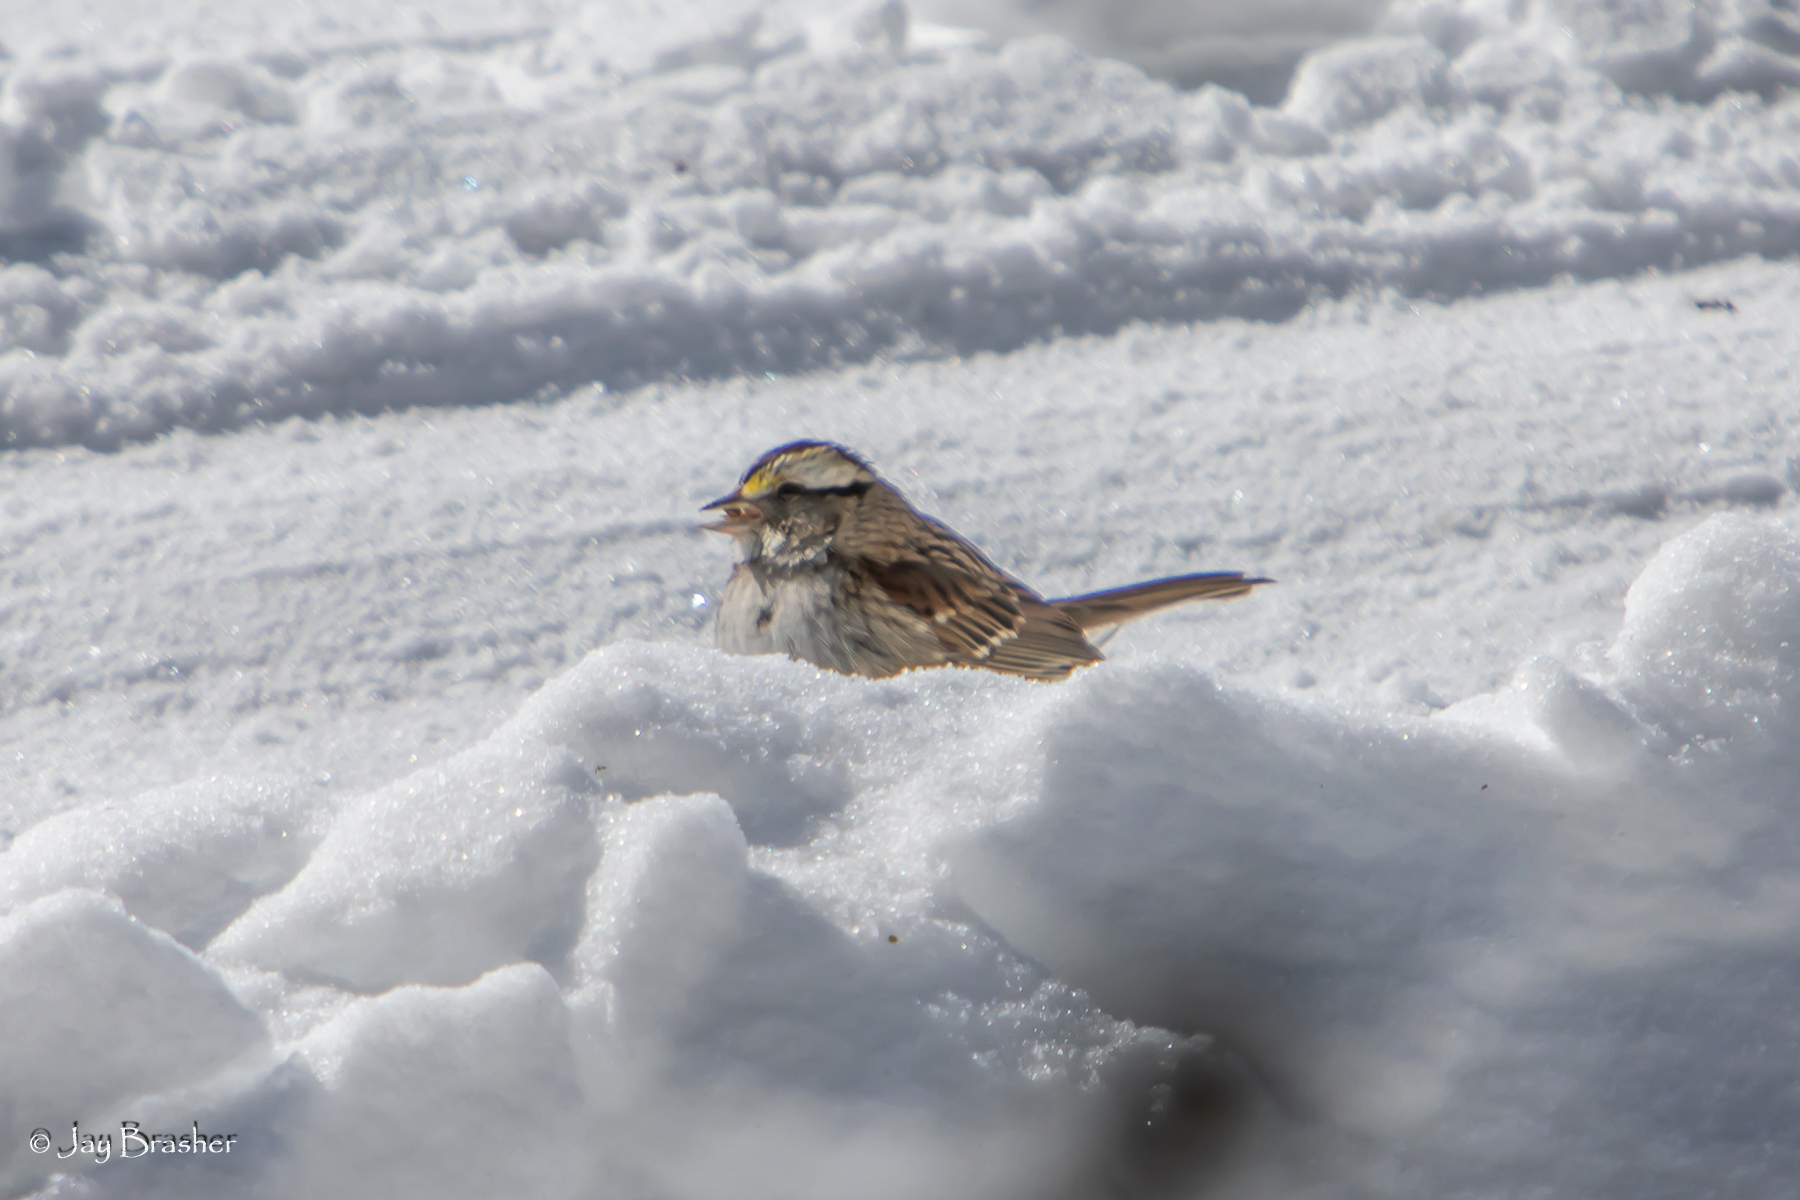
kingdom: Animalia
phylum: Chordata
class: Aves
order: Passeriformes
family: Passerellidae
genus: Zonotrichia
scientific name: Zonotrichia albicollis
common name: White-throated sparrow
